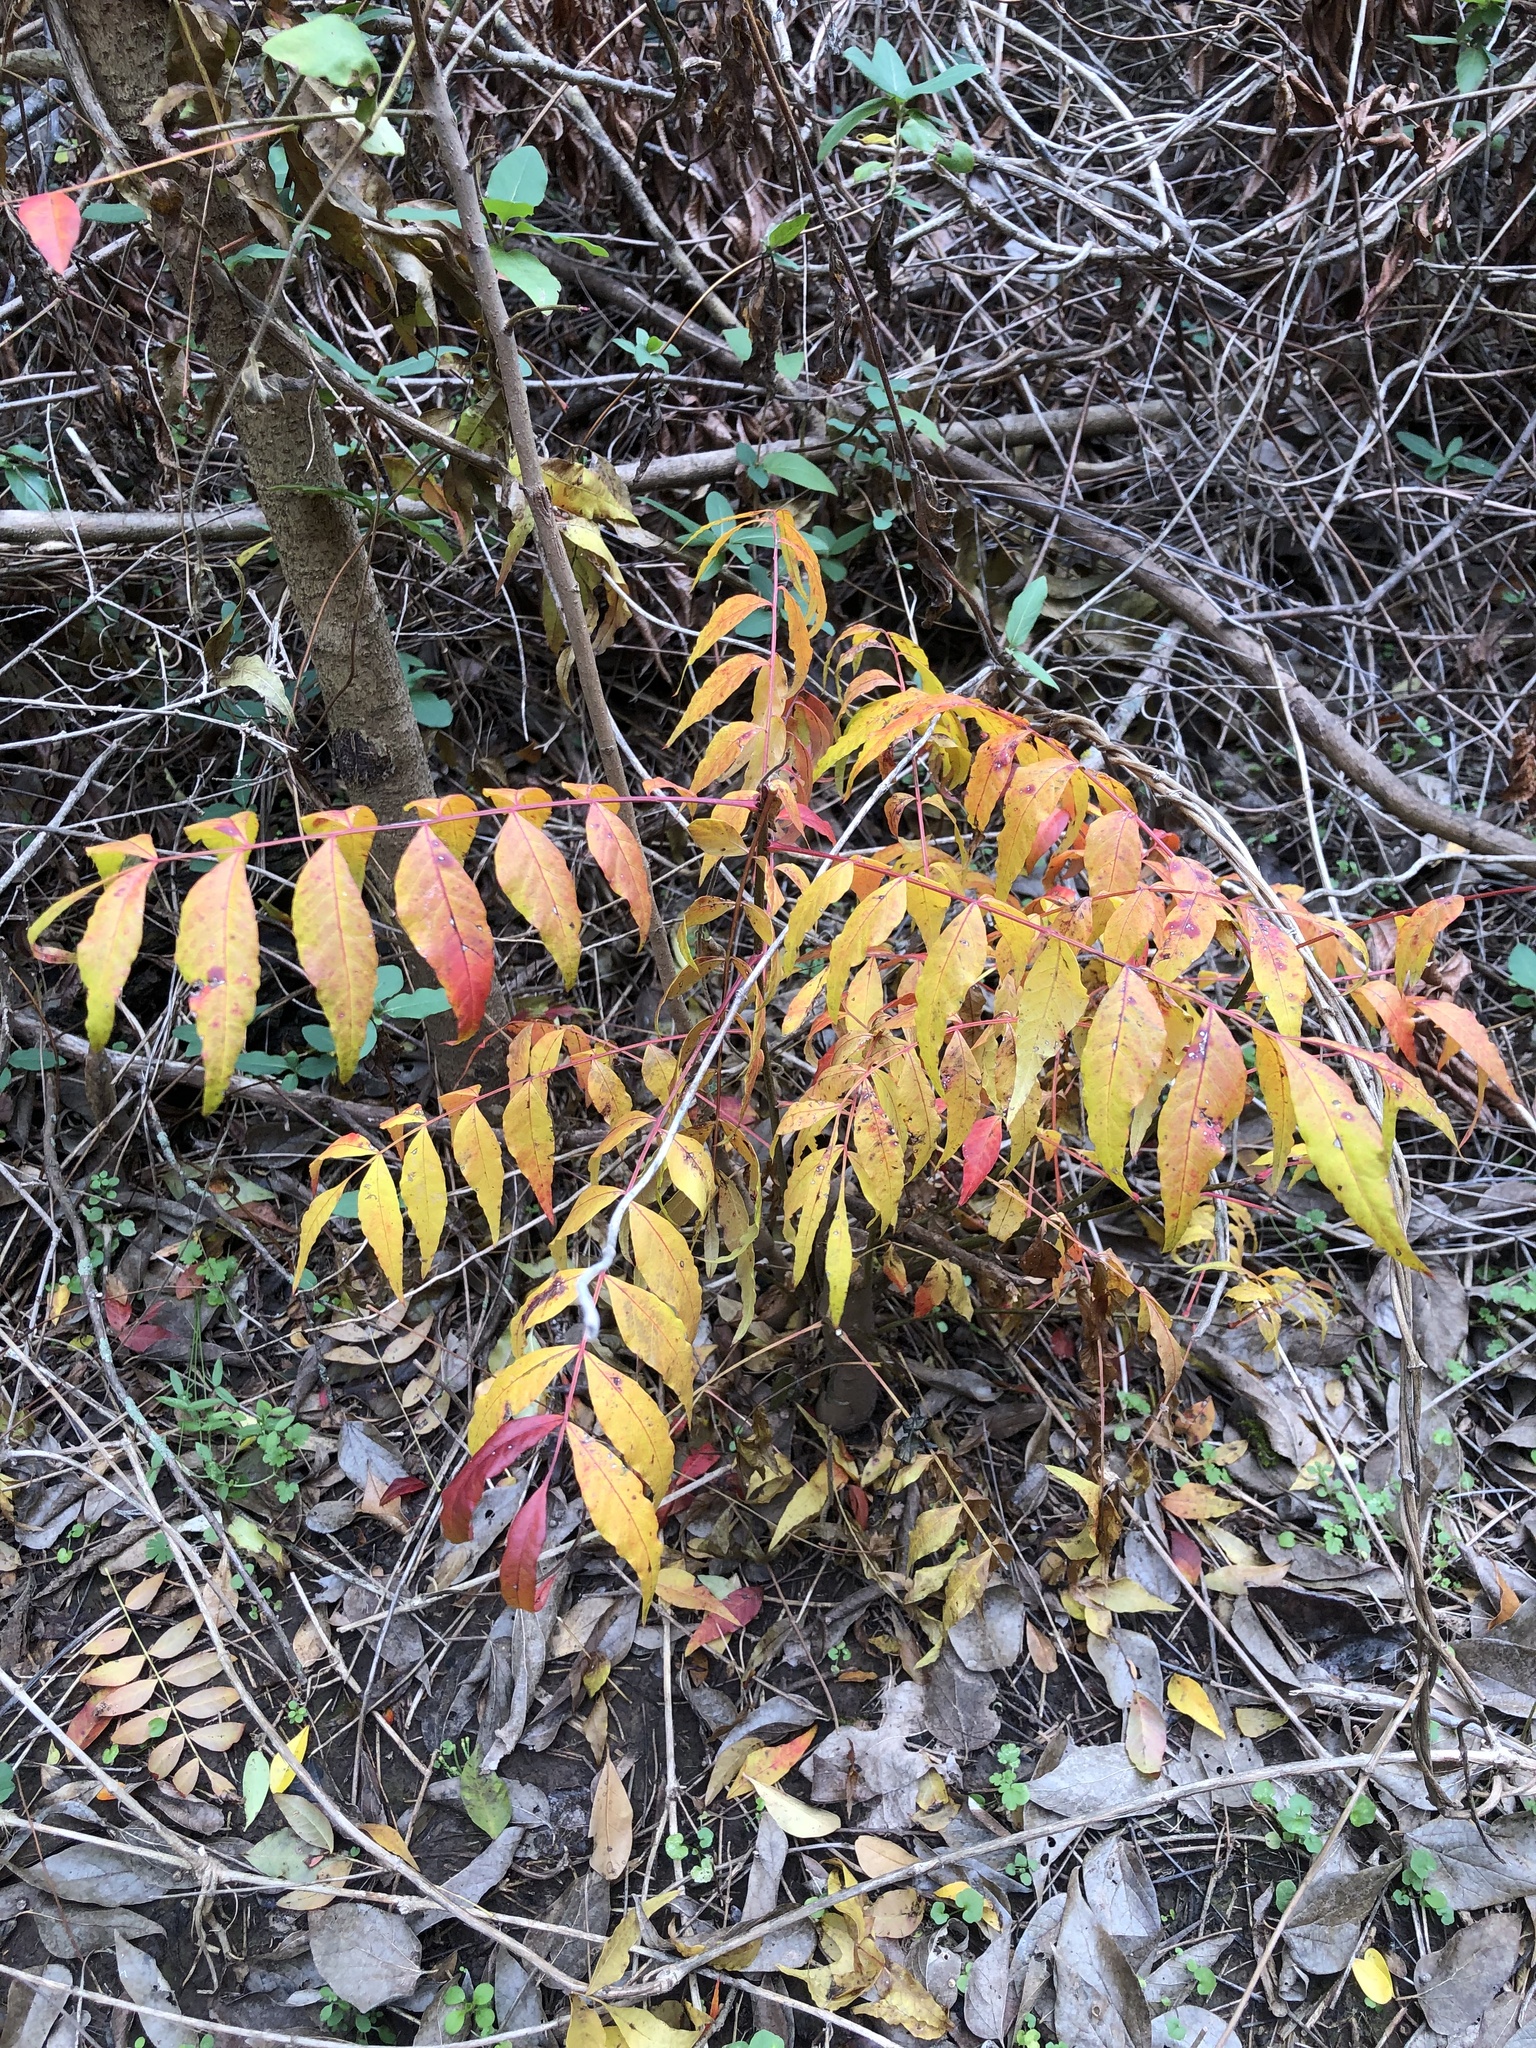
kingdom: Plantae
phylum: Tracheophyta
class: Magnoliopsida
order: Sapindales
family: Anacardiaceae
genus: Pistacia
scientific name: Pistacia chinensis
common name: Chinese pistache
